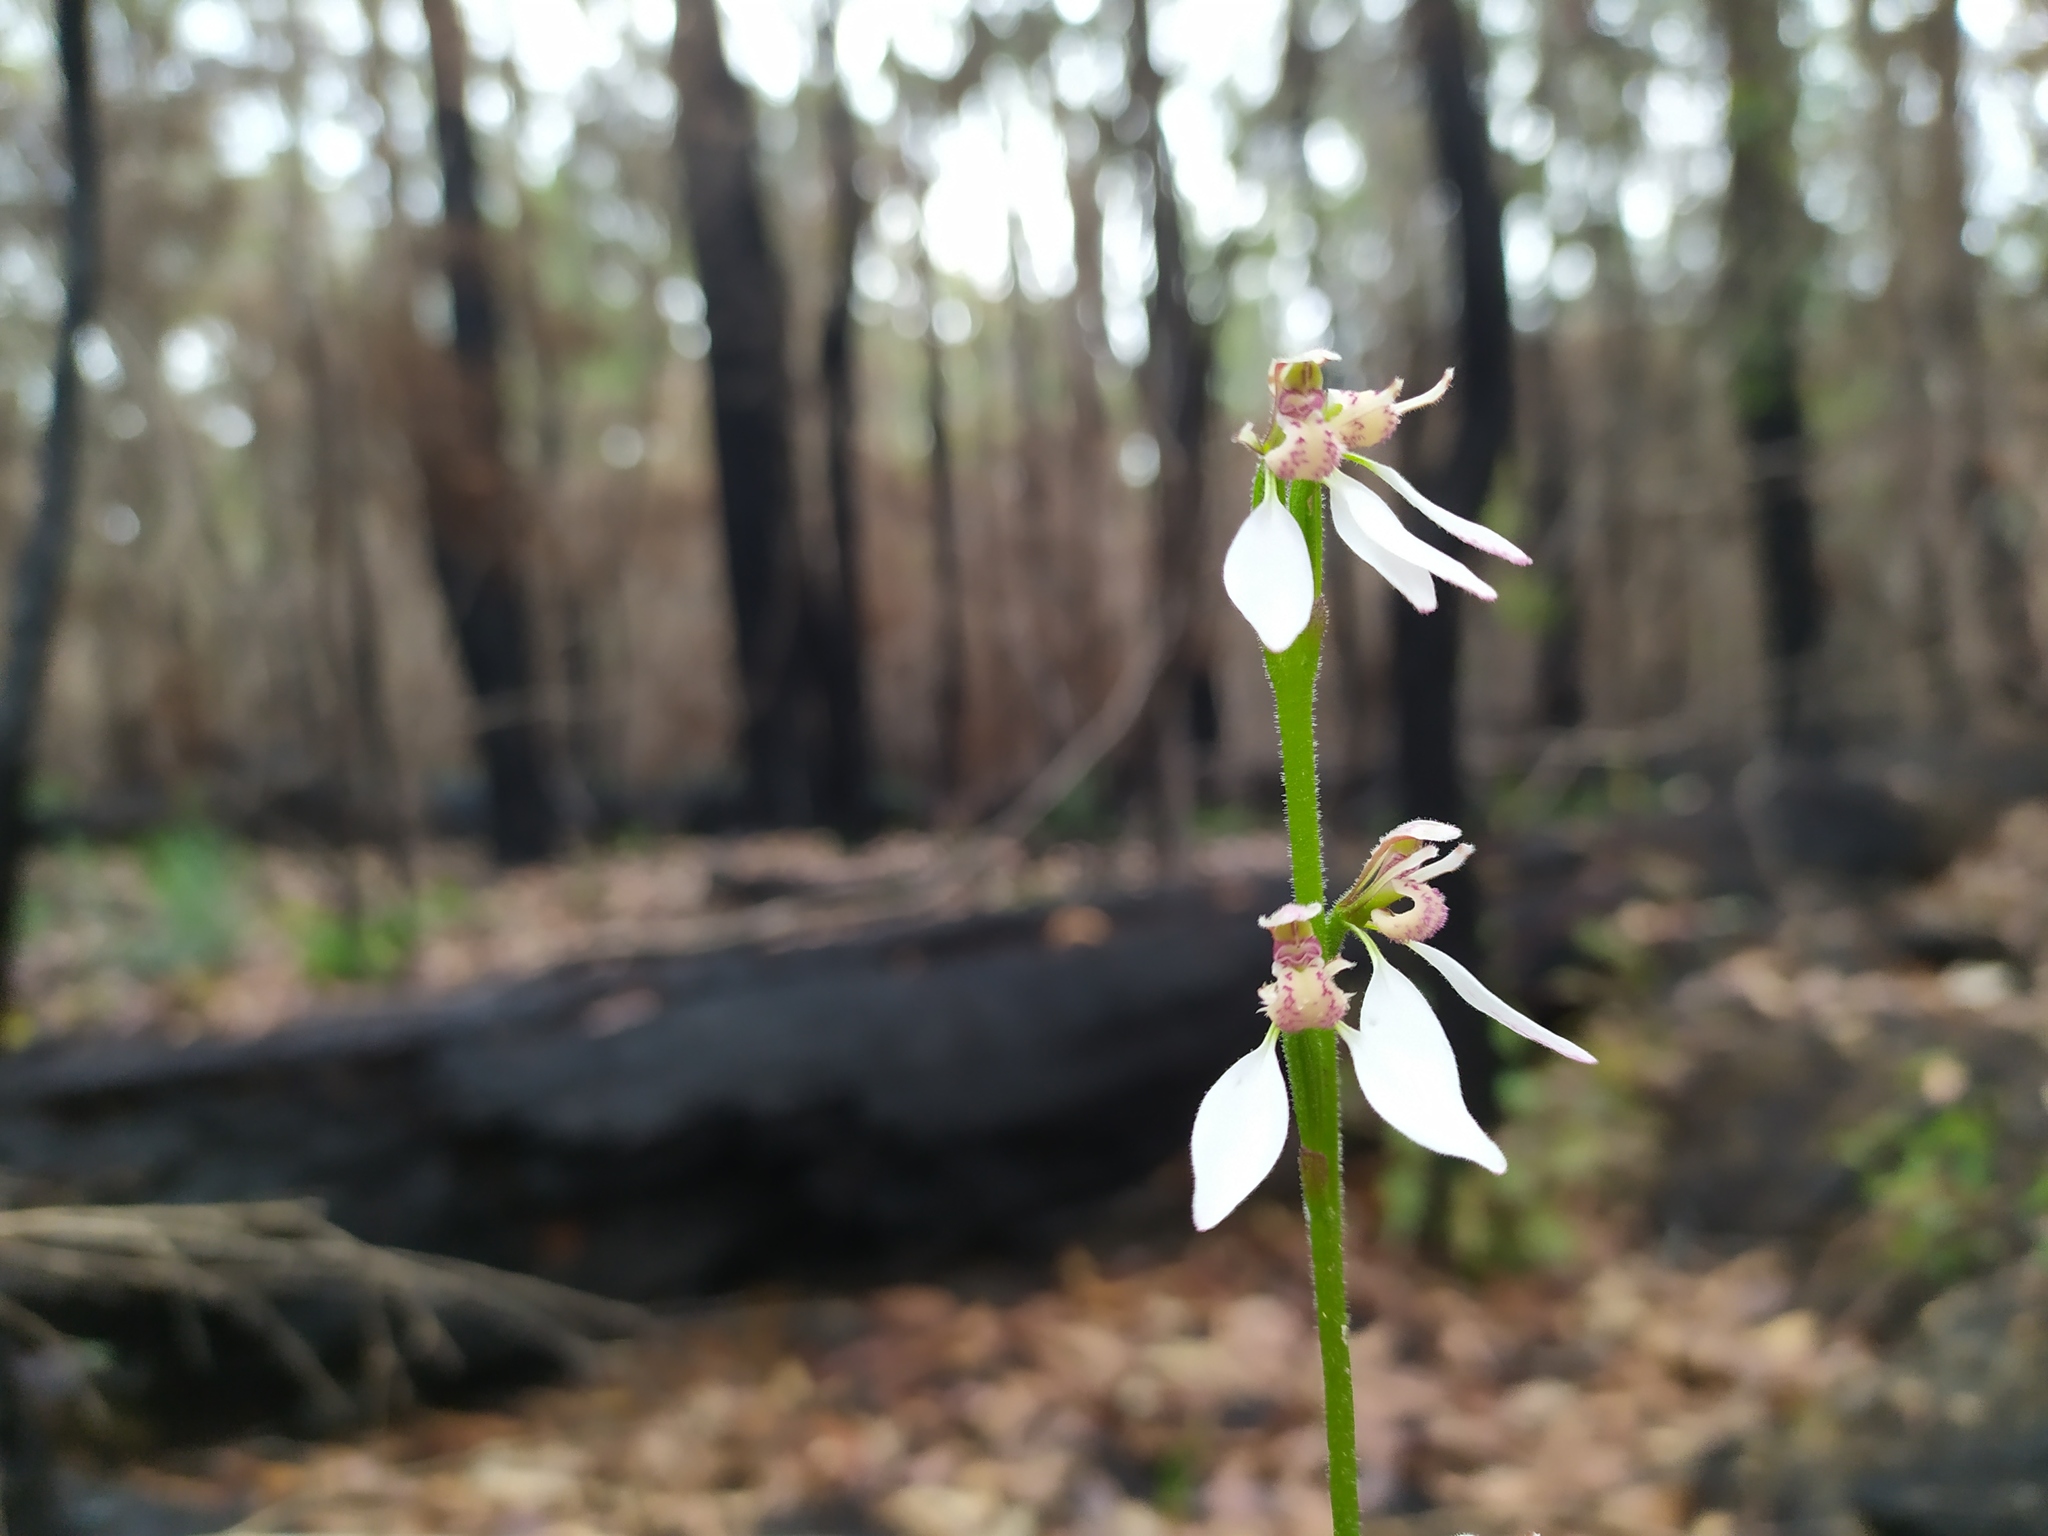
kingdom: Plantae
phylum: Tracheophyta
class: Liliopsida
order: Asparagales
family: Orchidaceae
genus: Eriochilus
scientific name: Eriochilus dilatatus
